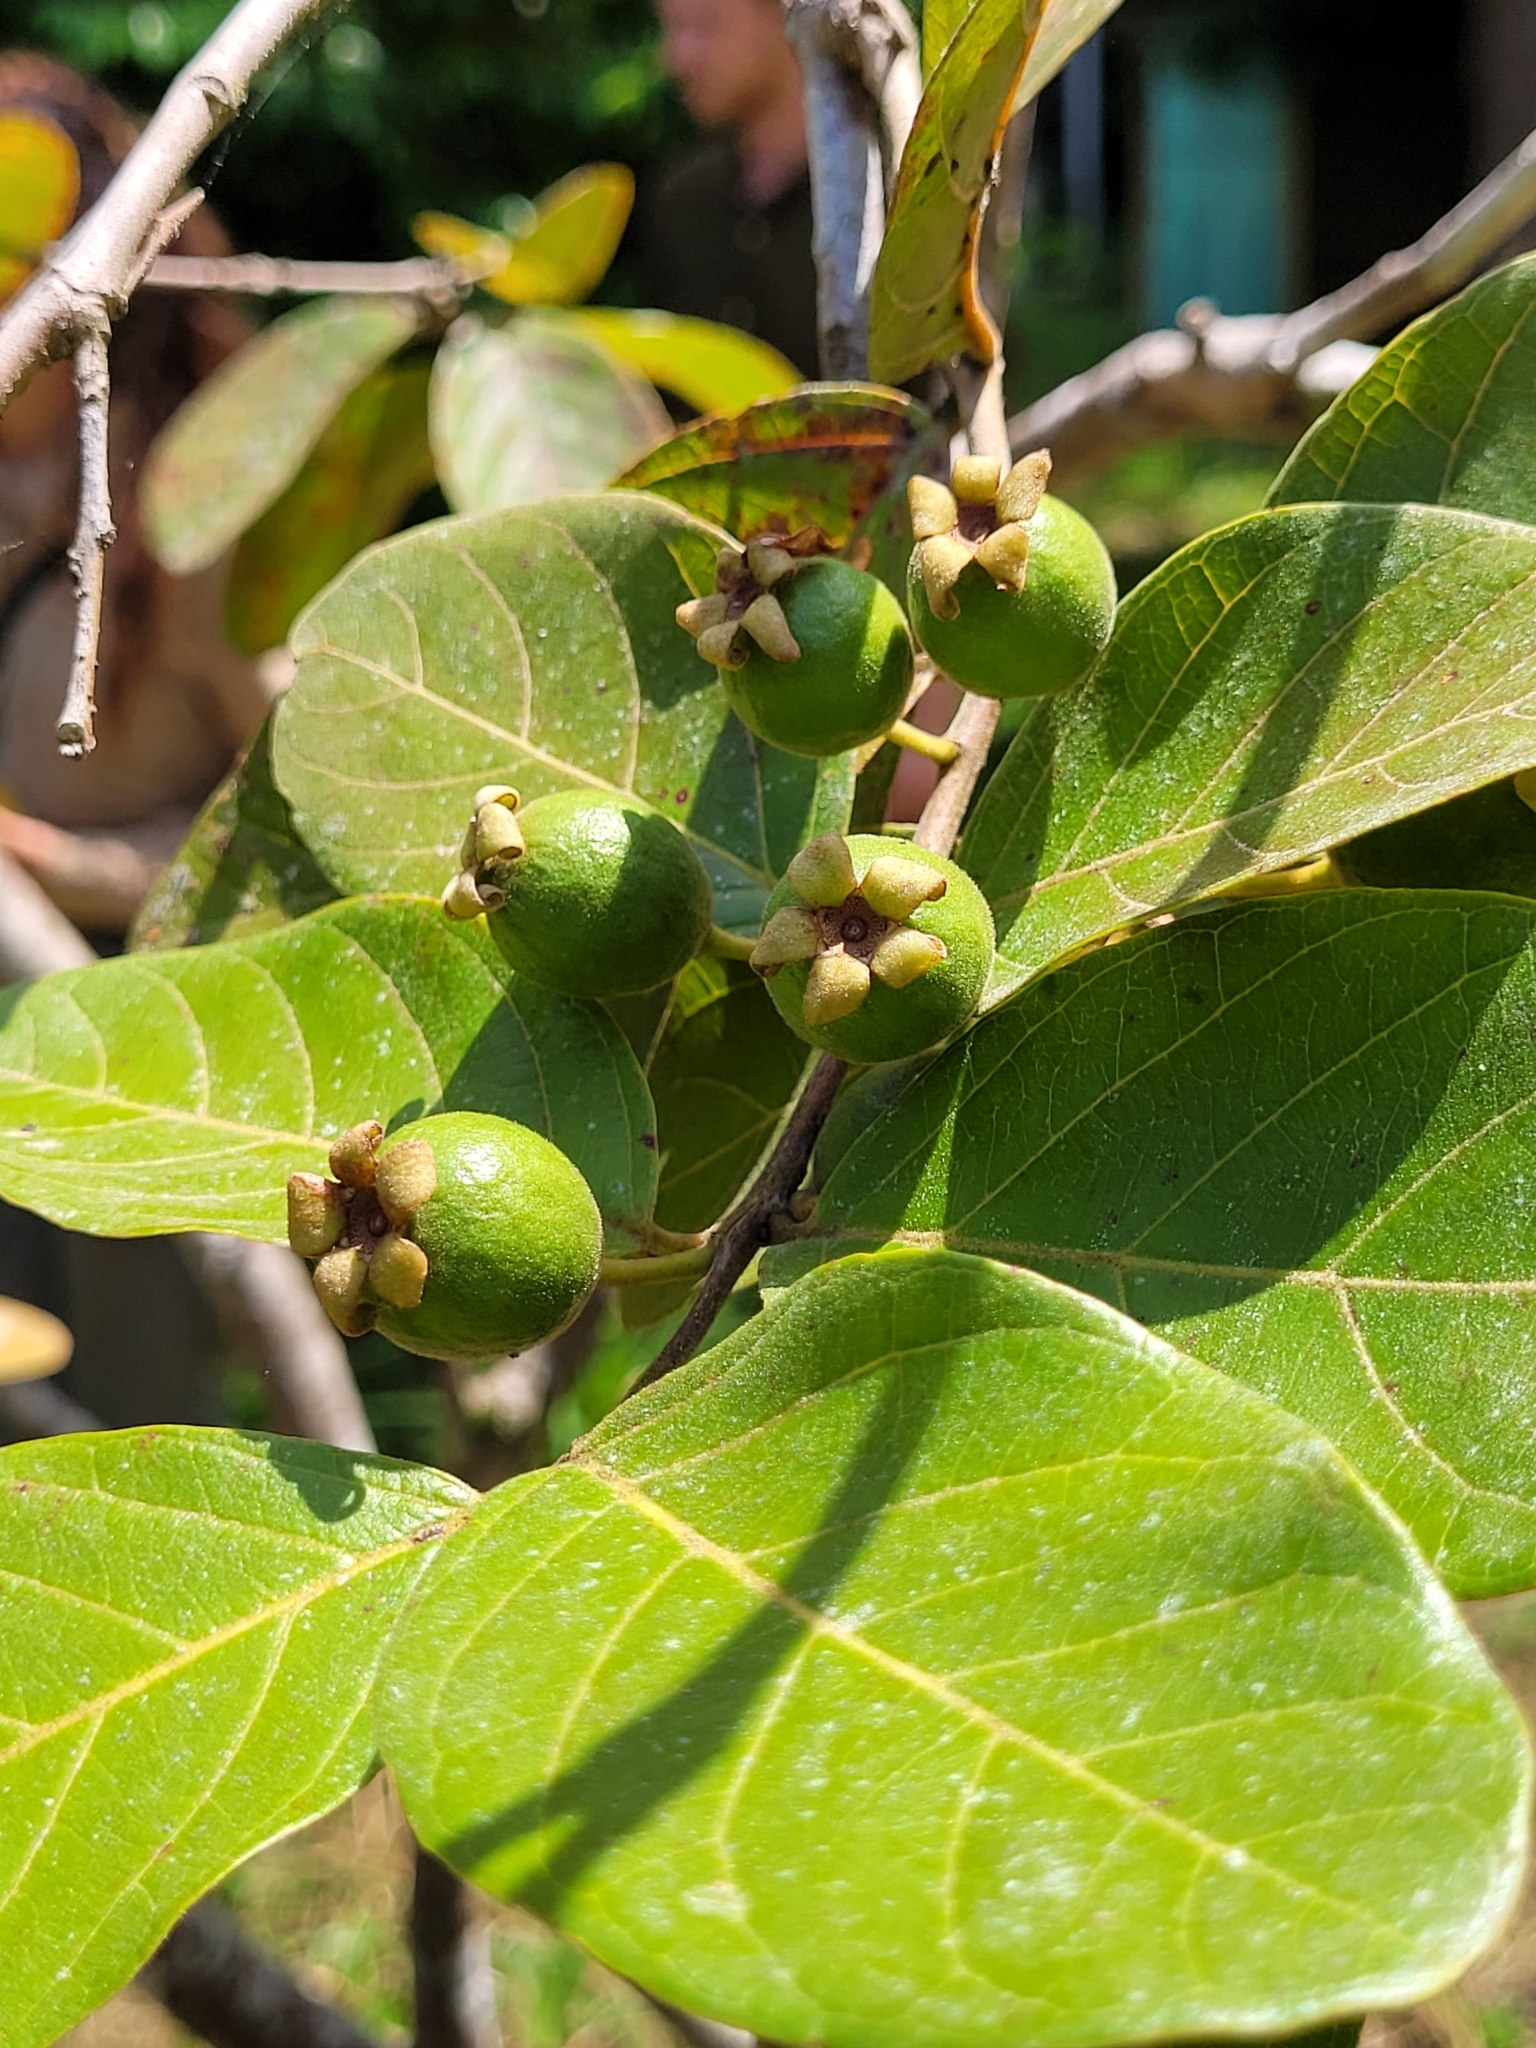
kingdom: Plantae
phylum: Tracheophyta
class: Magnoliopsida
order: Myrtales
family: Myrtaceae
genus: Psidium
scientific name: Psidium guajava
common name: Guava
